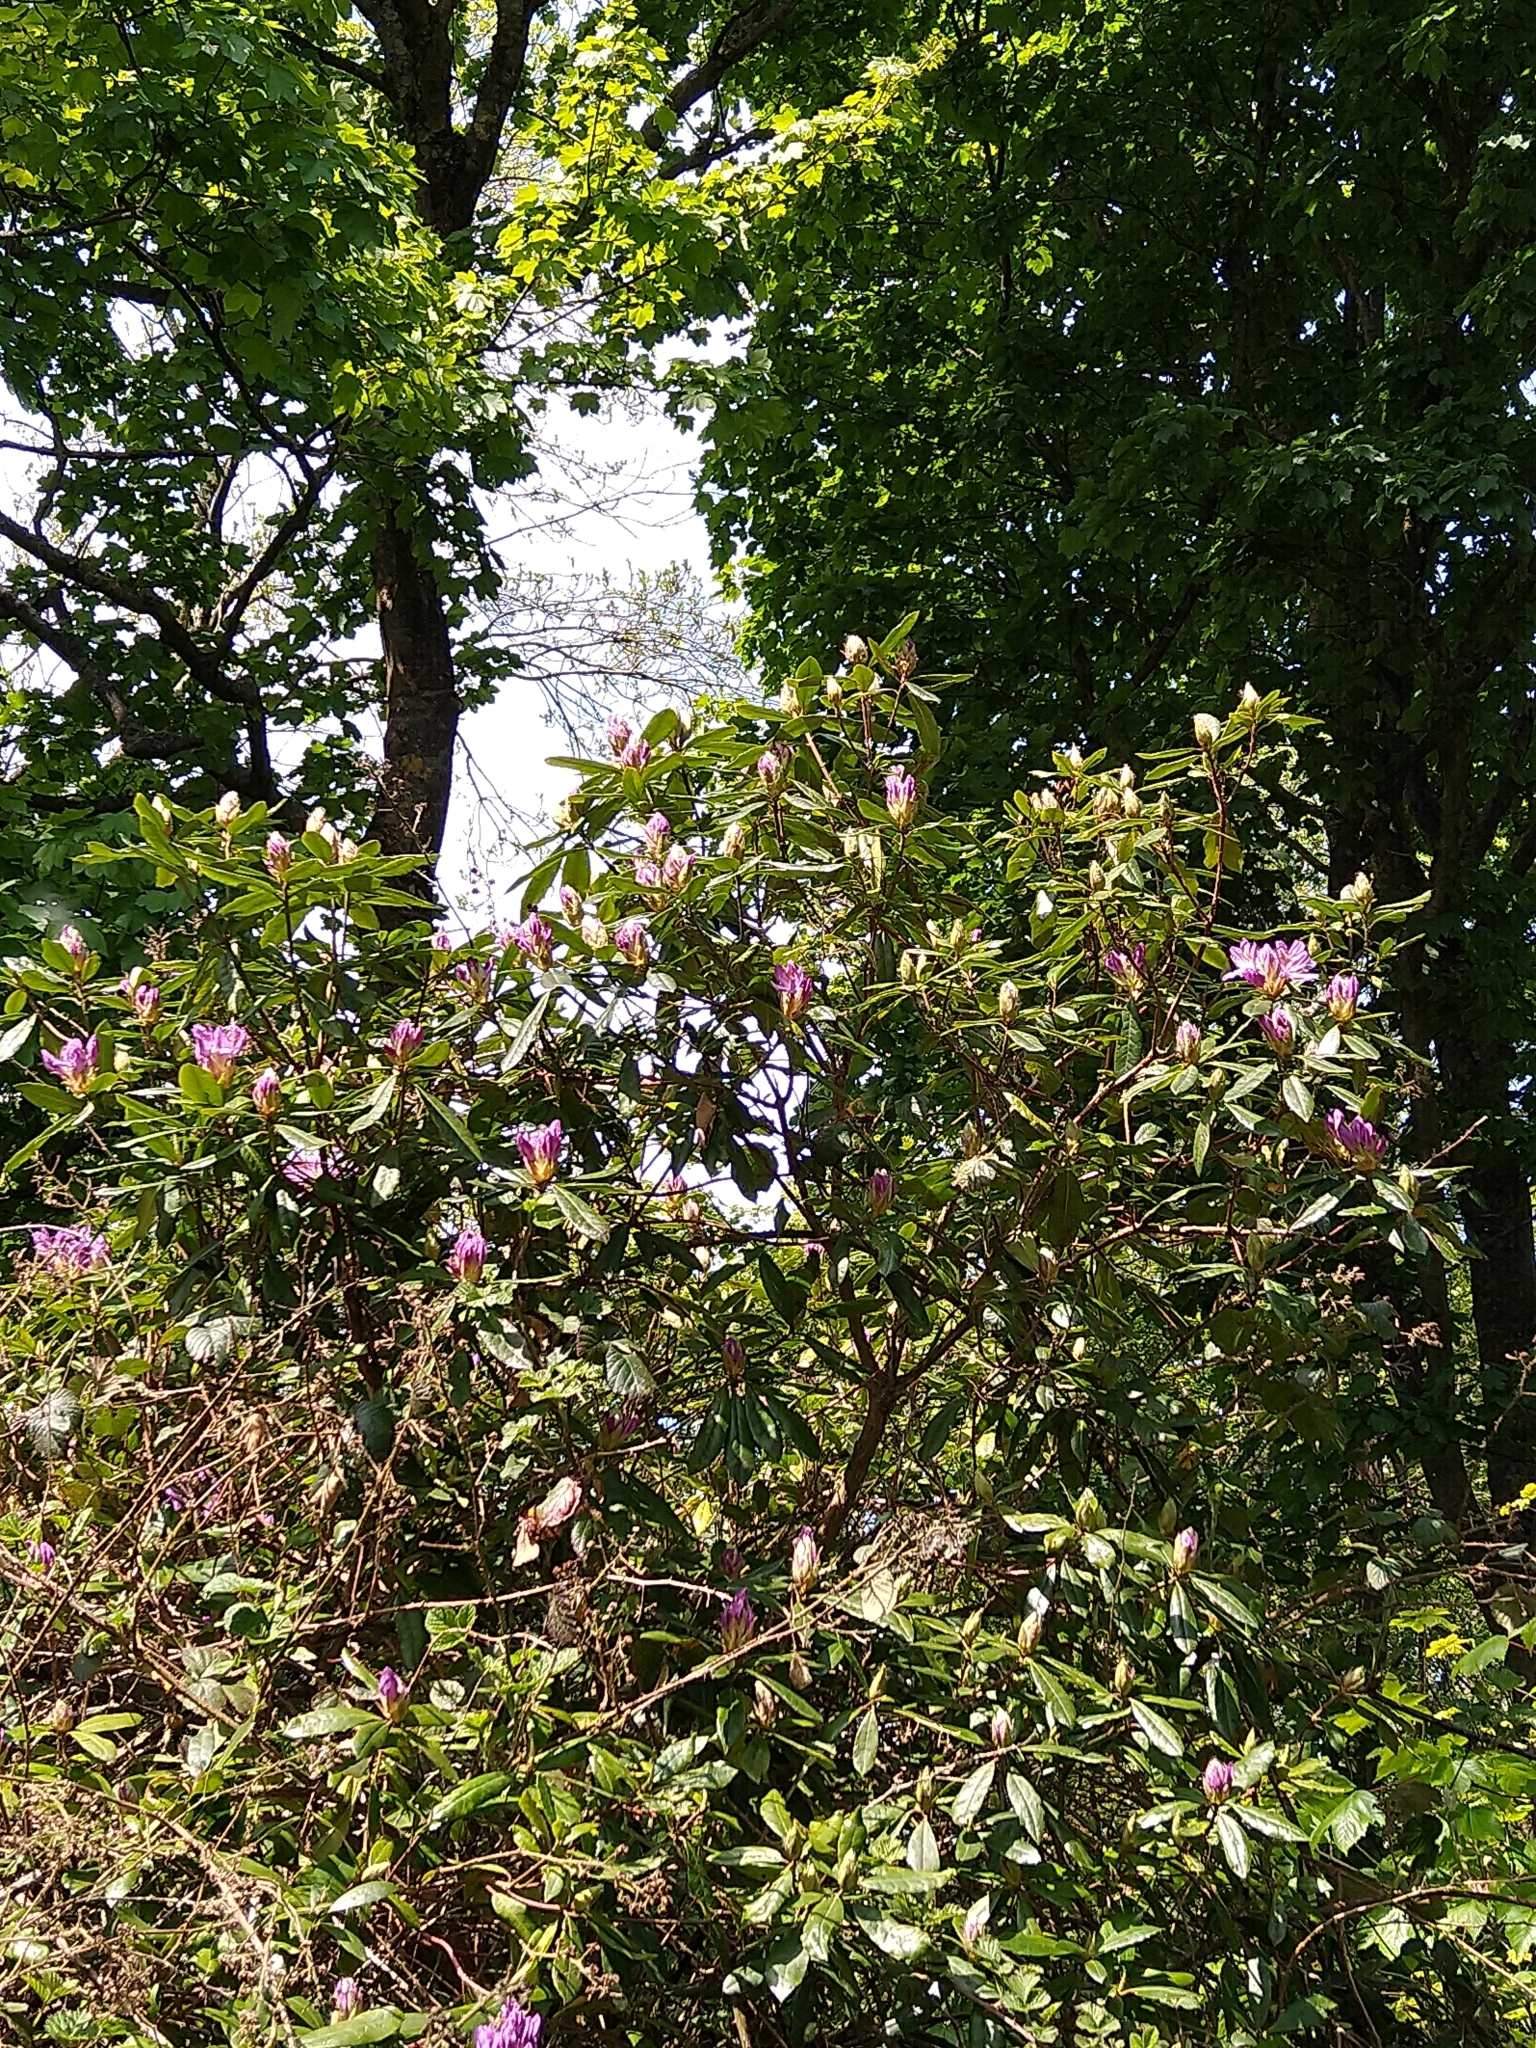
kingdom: Plantae
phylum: Tracheophyta
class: Magnoliopsida
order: Ericales
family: Ericaceae
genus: Rhododendron
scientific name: Rhododendron ponticum
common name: Rhododendron
